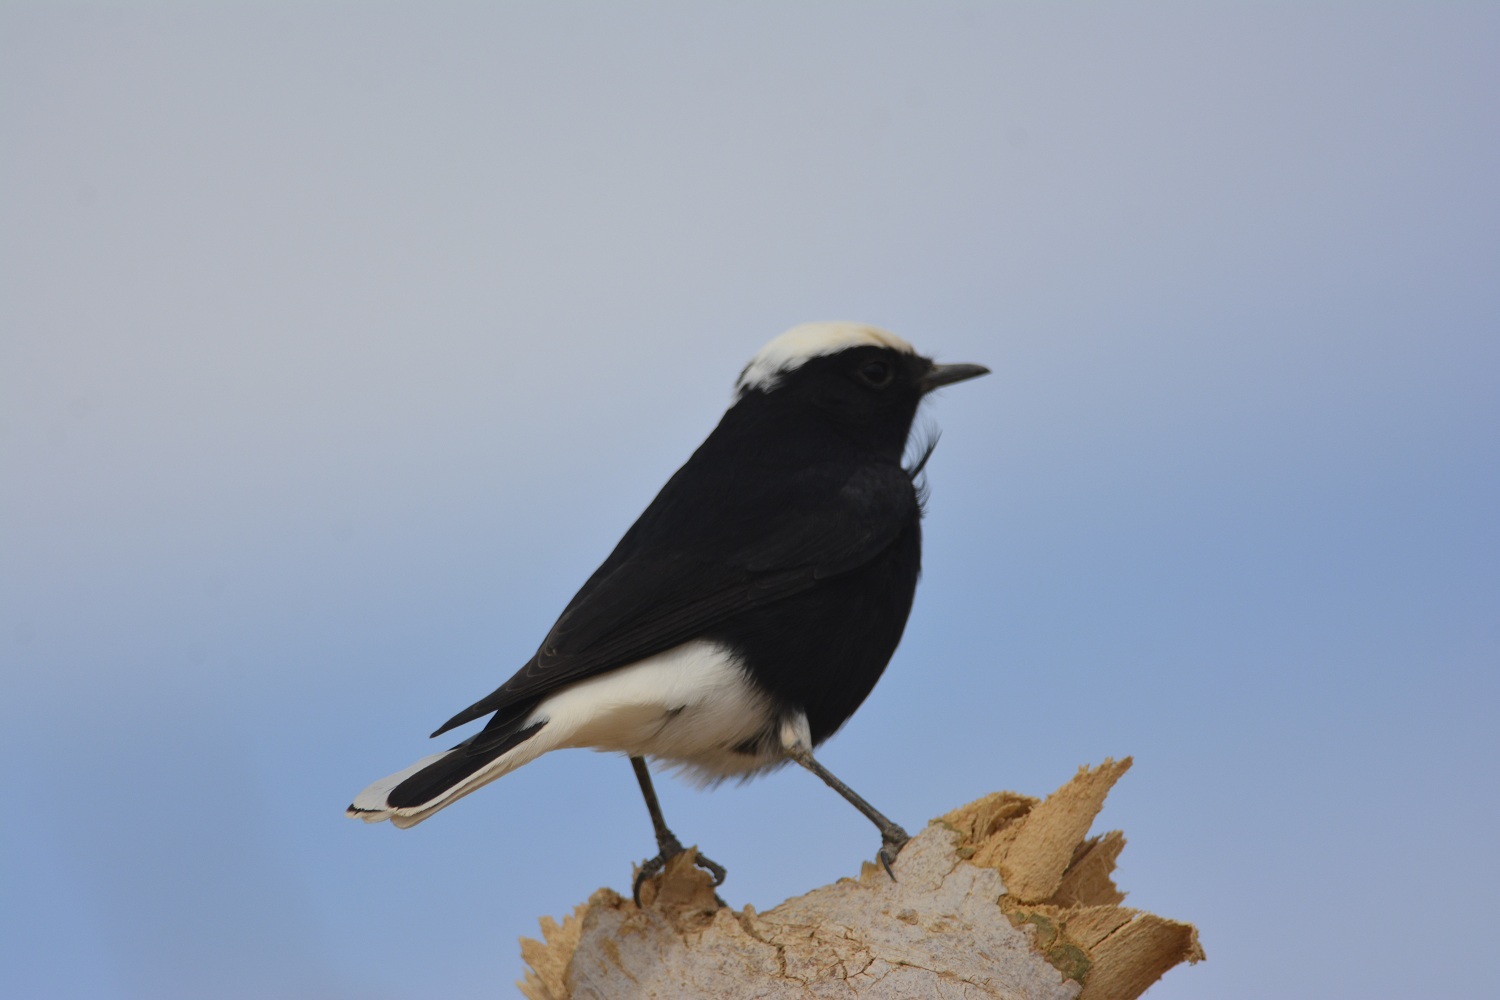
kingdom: Animalia
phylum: Chordata
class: Aves
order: Passeriformes
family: Muscicapidae
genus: Oenanthe
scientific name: Oenanthe leucopyga
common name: White-crowned wheatear
